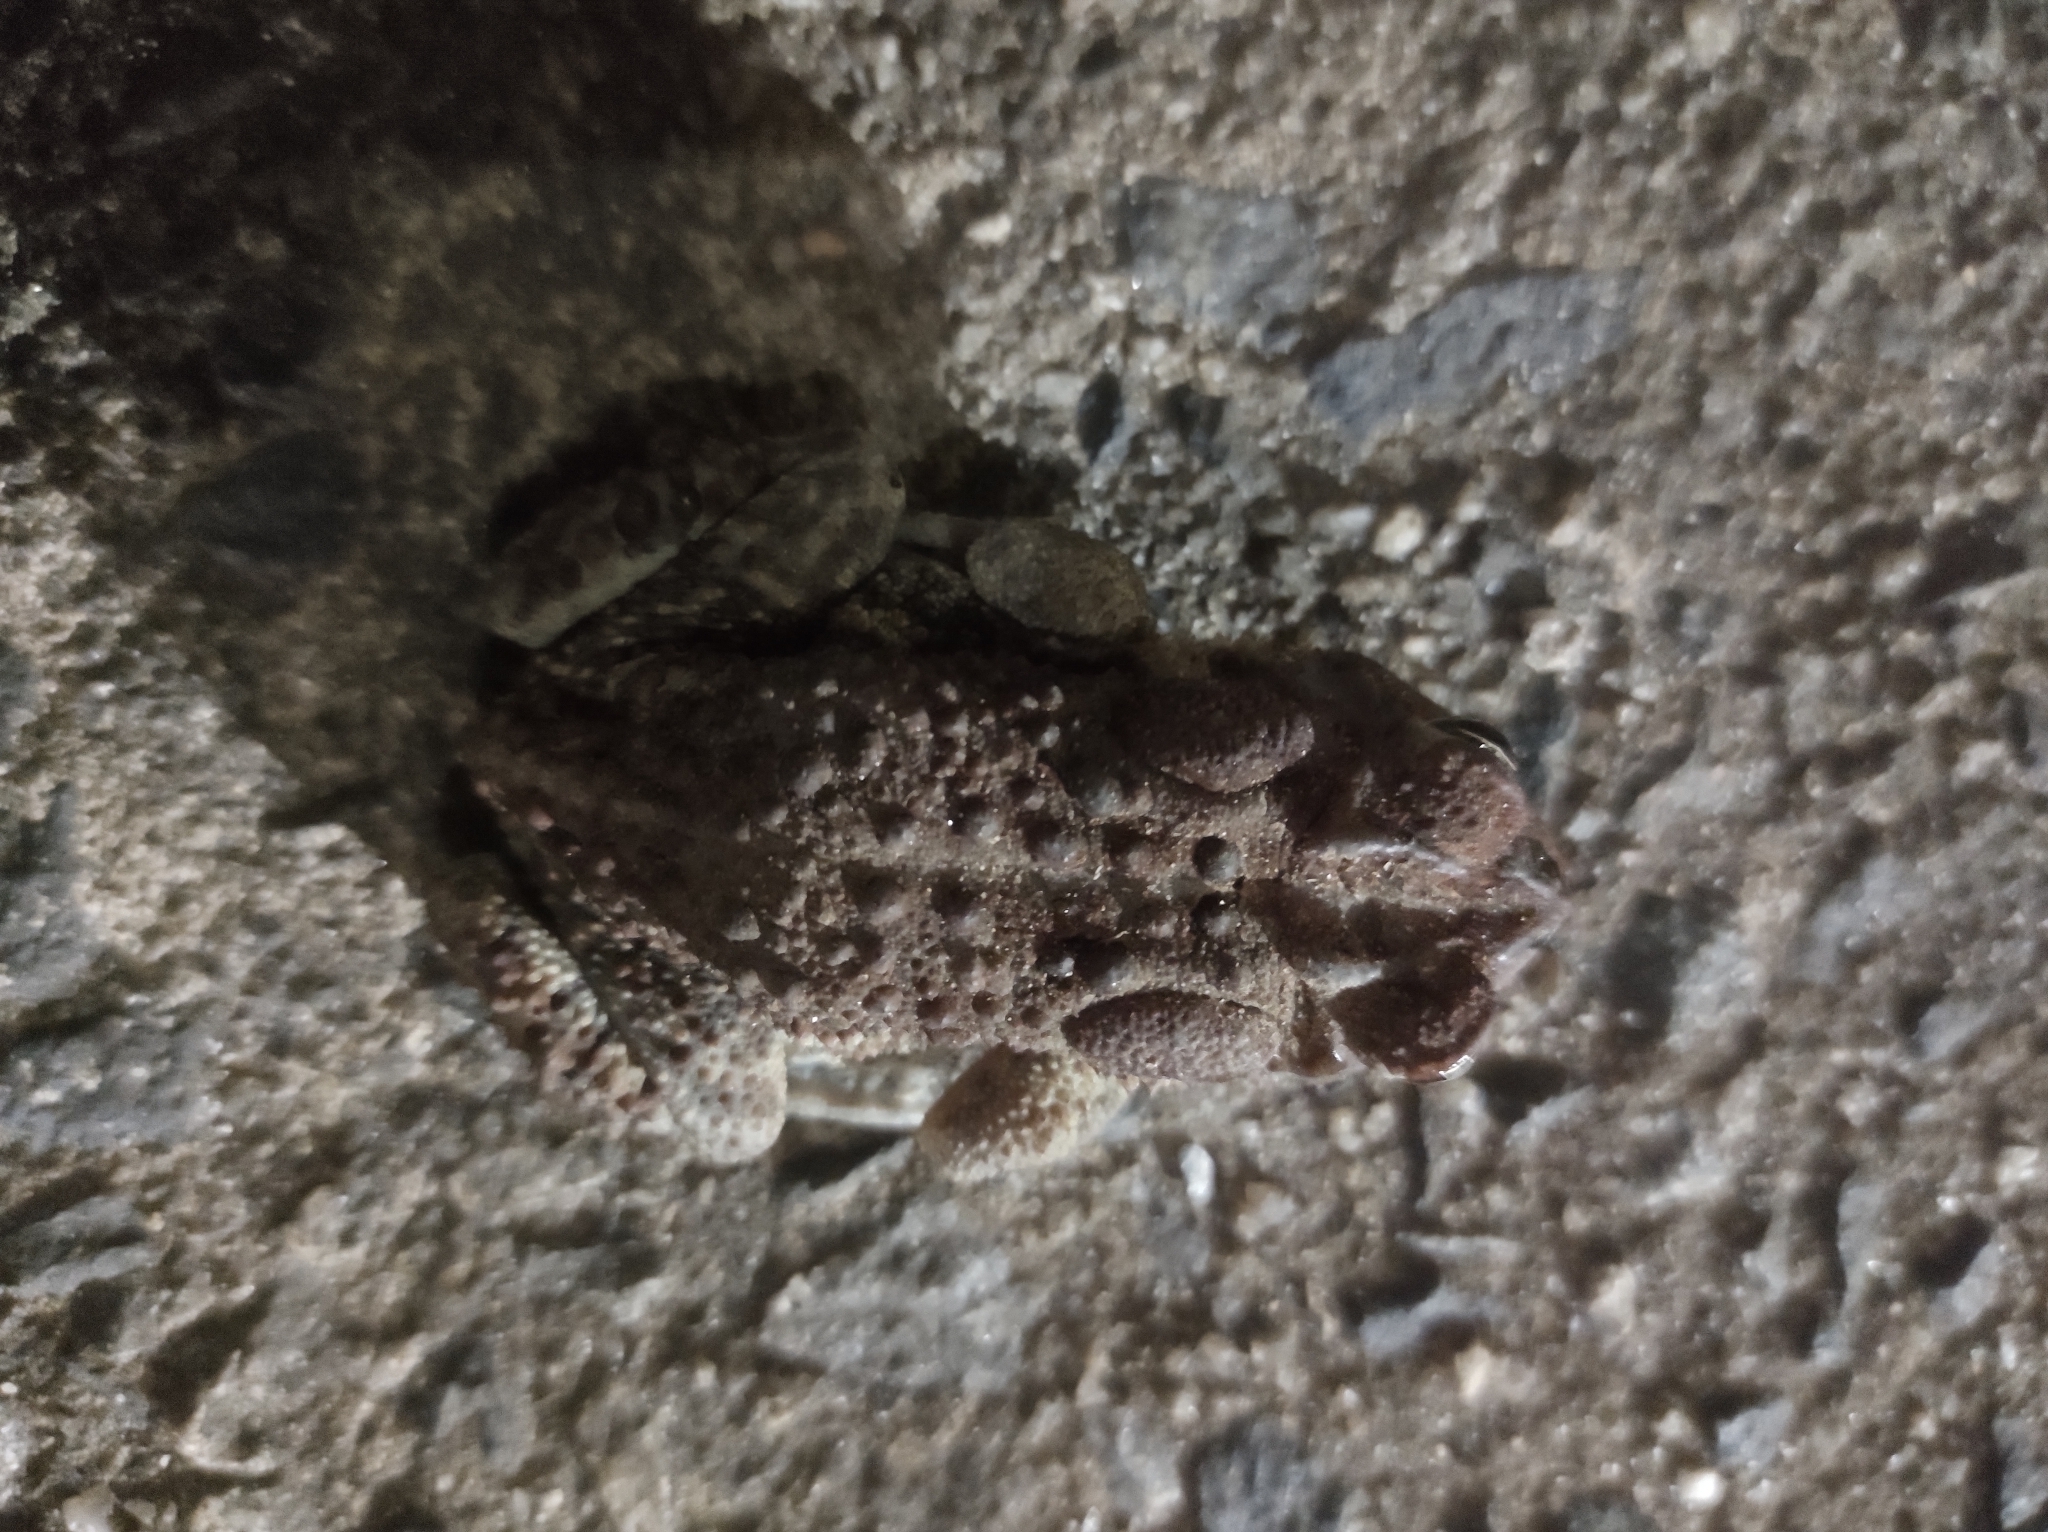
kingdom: Animalia
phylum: Chordata
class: Amphibia
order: Anura
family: Bufonidae
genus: Anaxyrus
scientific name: Anaxyrus terrestris
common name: Southern toad
